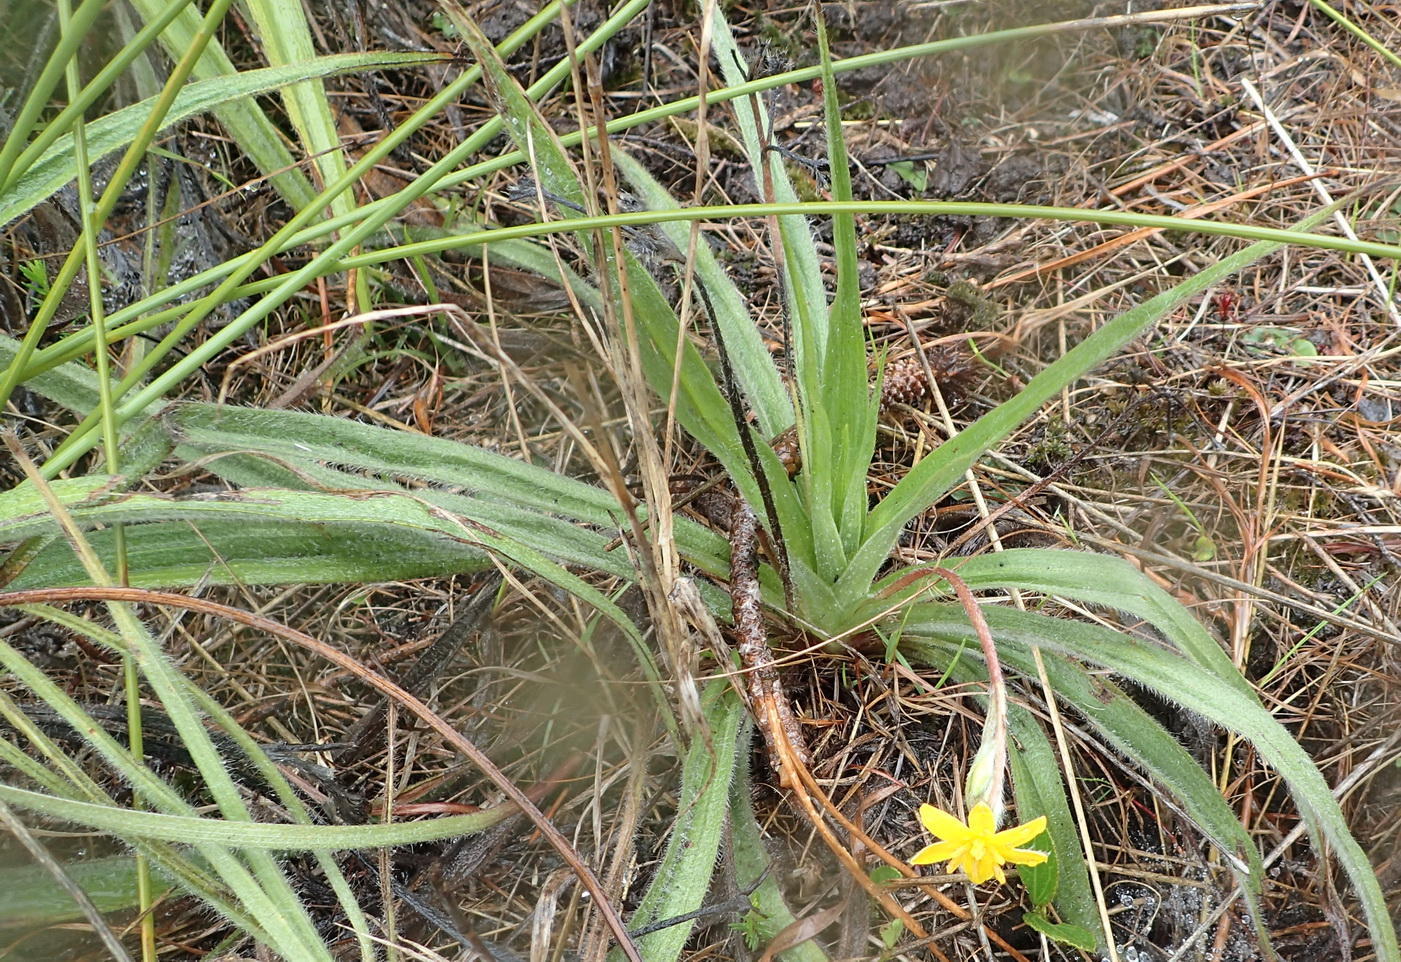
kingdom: Plantae
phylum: Tracheophyta
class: Liliopsida
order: Asparagales
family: Hypoxidaceae
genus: Hypoxis
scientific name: Hypoxis villosa
